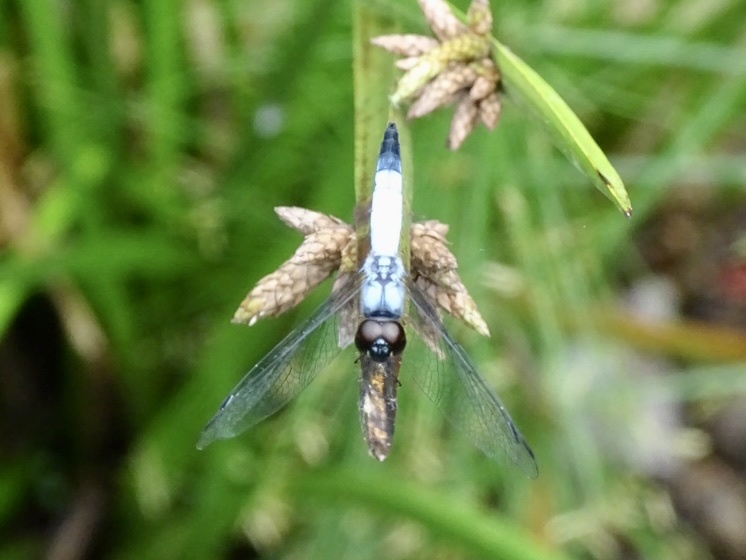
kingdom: Animalia
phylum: Arthropoda
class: Insecta
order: Odonata
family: Libellulidae
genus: Aethriamanta
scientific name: Aethriamanta gracilis
